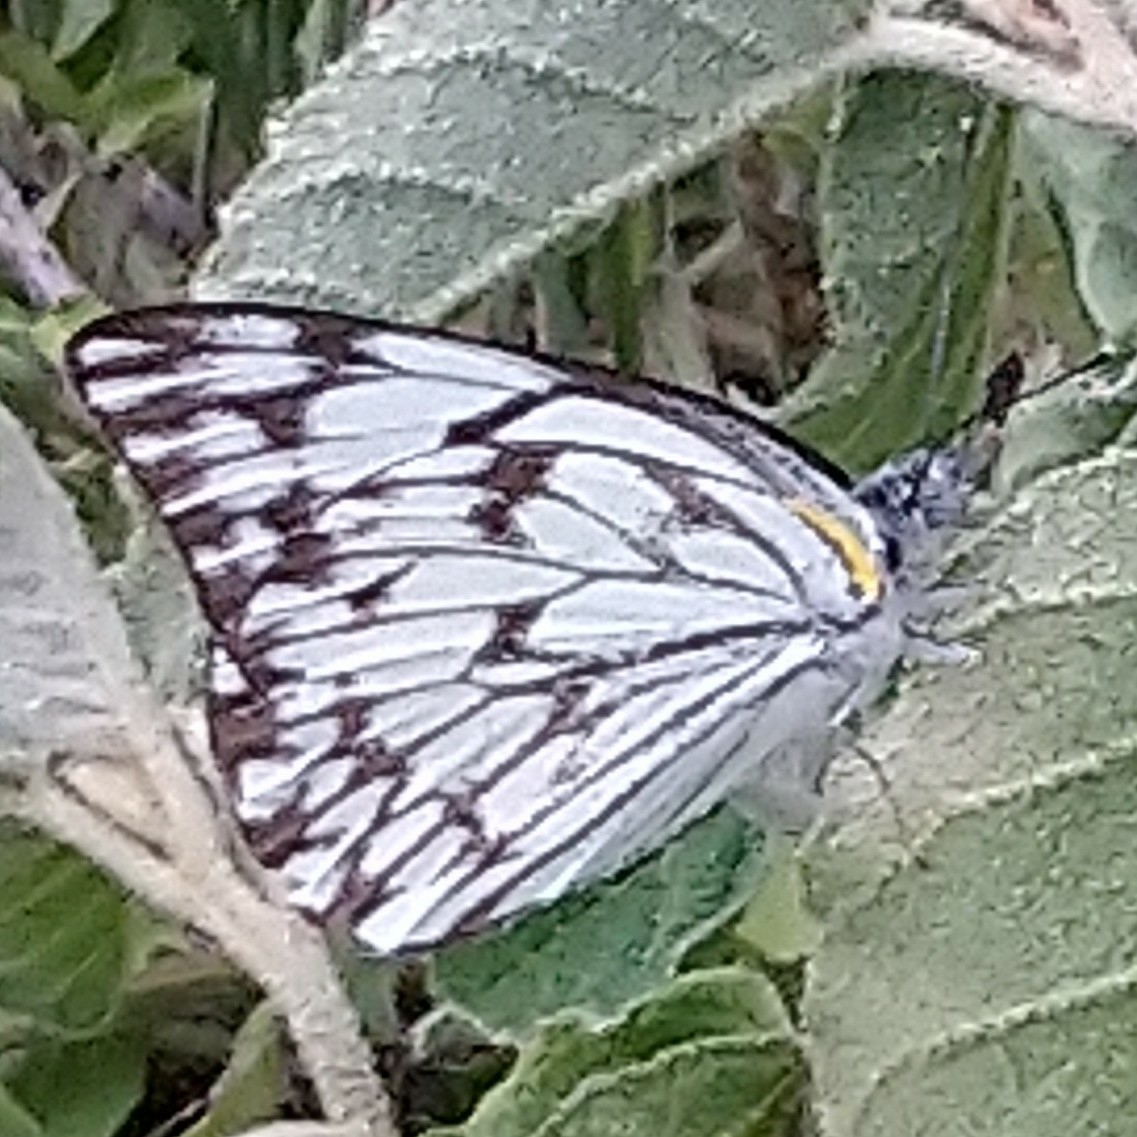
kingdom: Animalia
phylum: Arthropoda
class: Insecta
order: Lepidoptera
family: Pieridae
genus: Belenois
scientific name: Belenois gidica
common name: Pointed caper white
